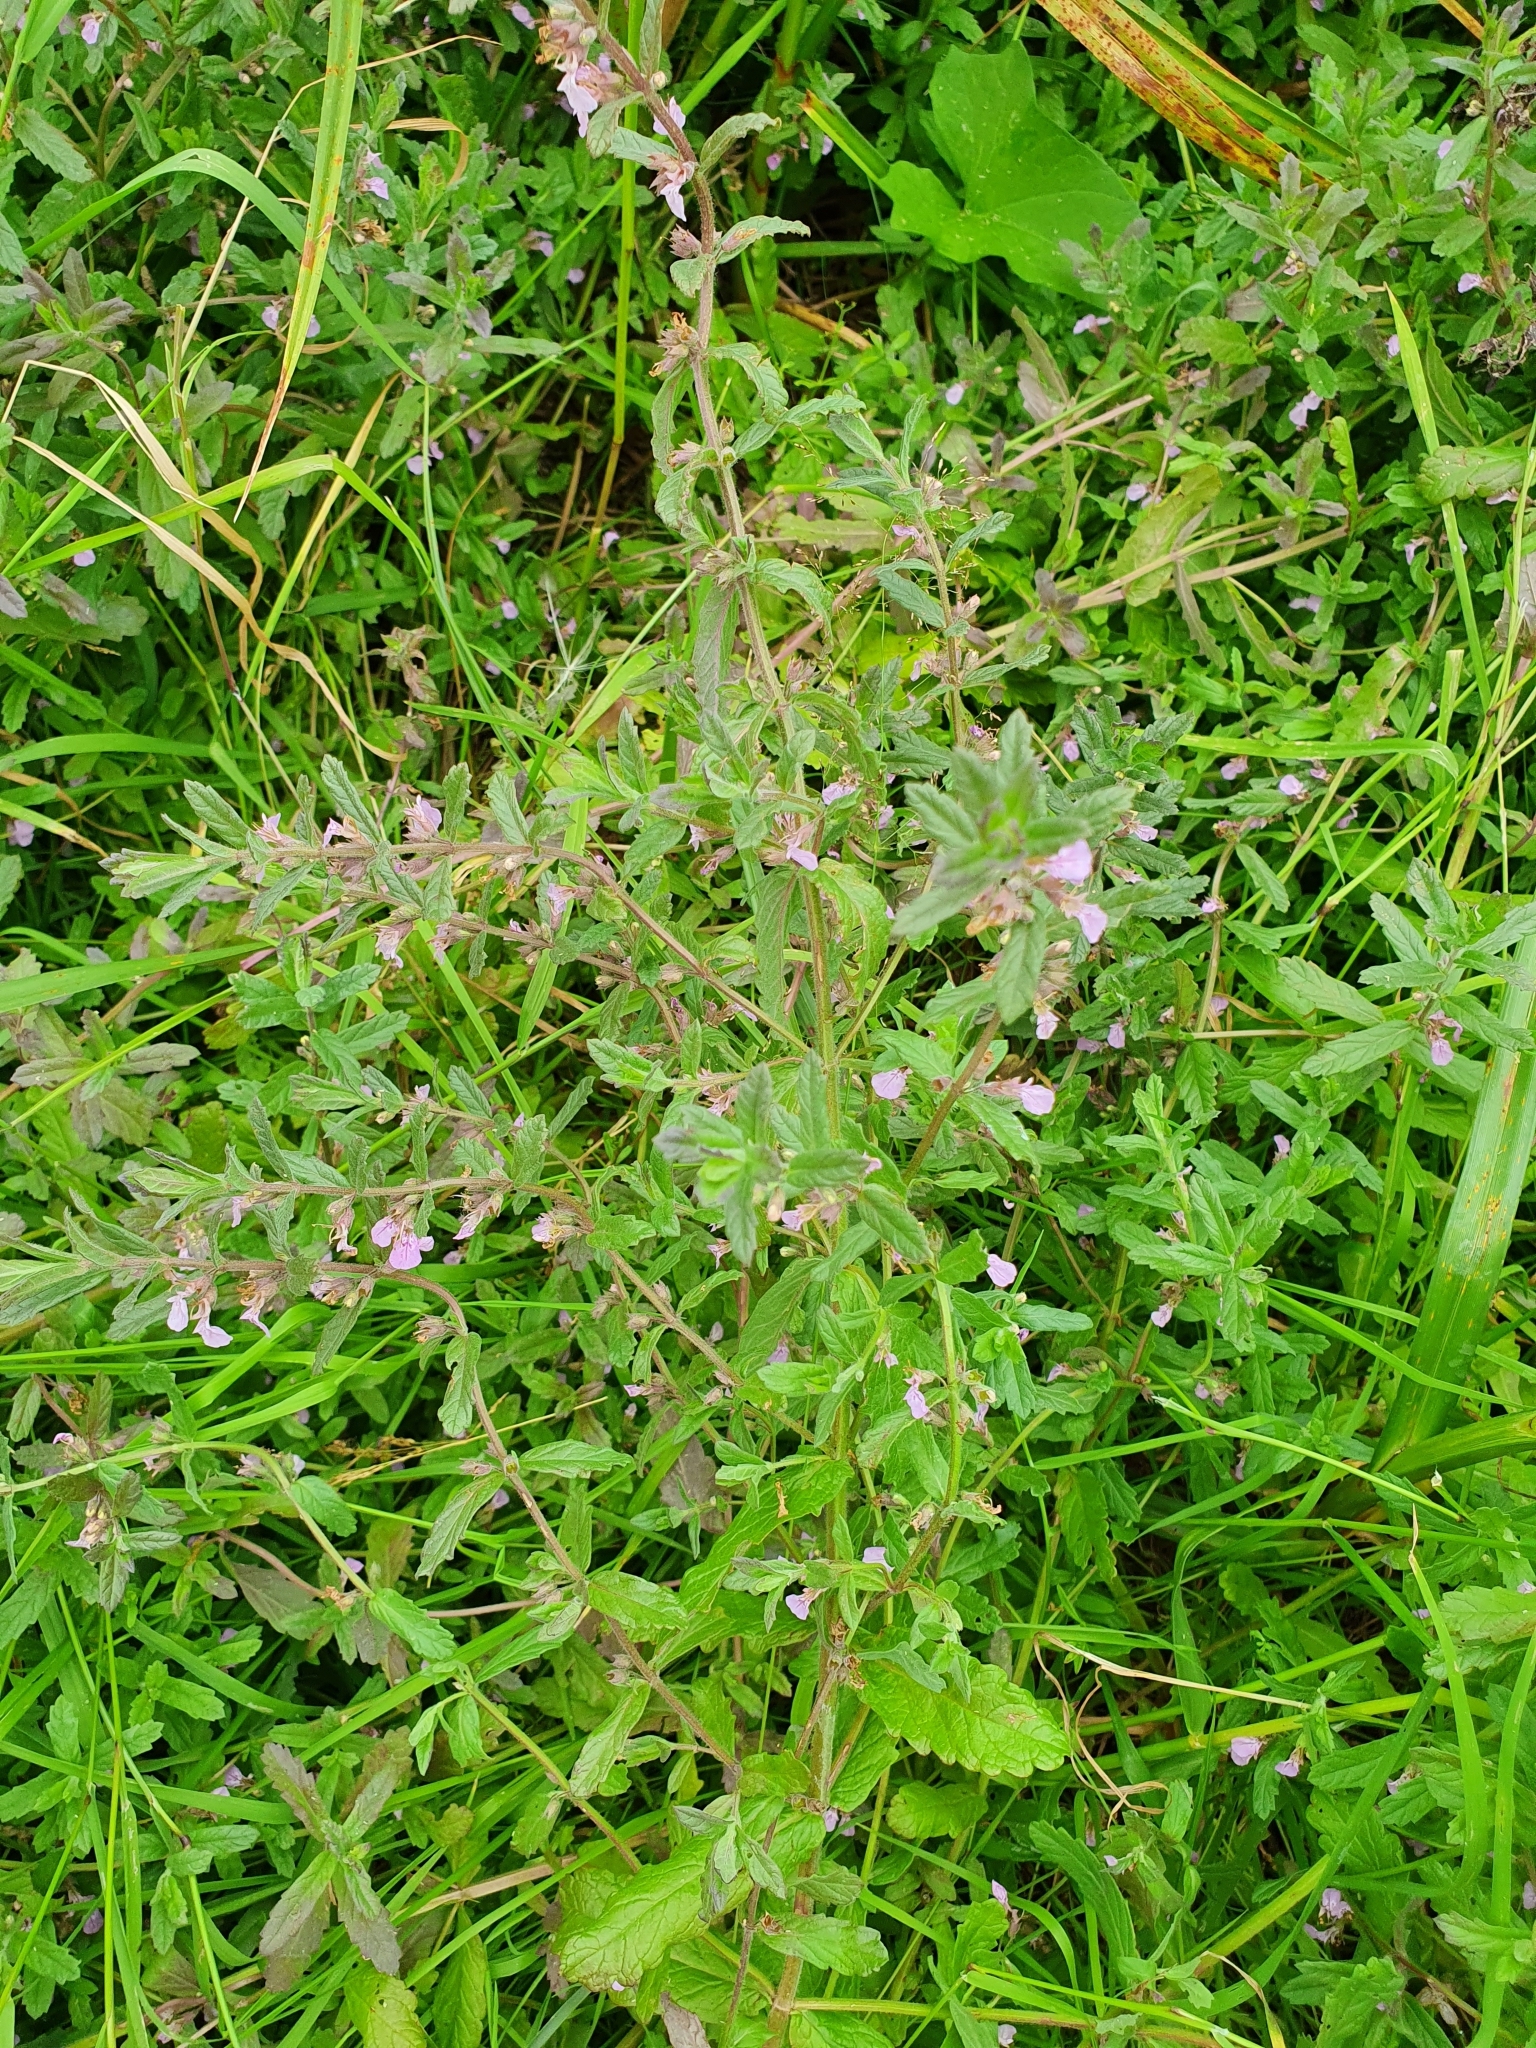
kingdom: Plantae
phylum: Tracheophyta
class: Magnoliopsida
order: Lamiales
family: Lamiaceae
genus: Teucrium
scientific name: Teucrium scordium
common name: Water germander
